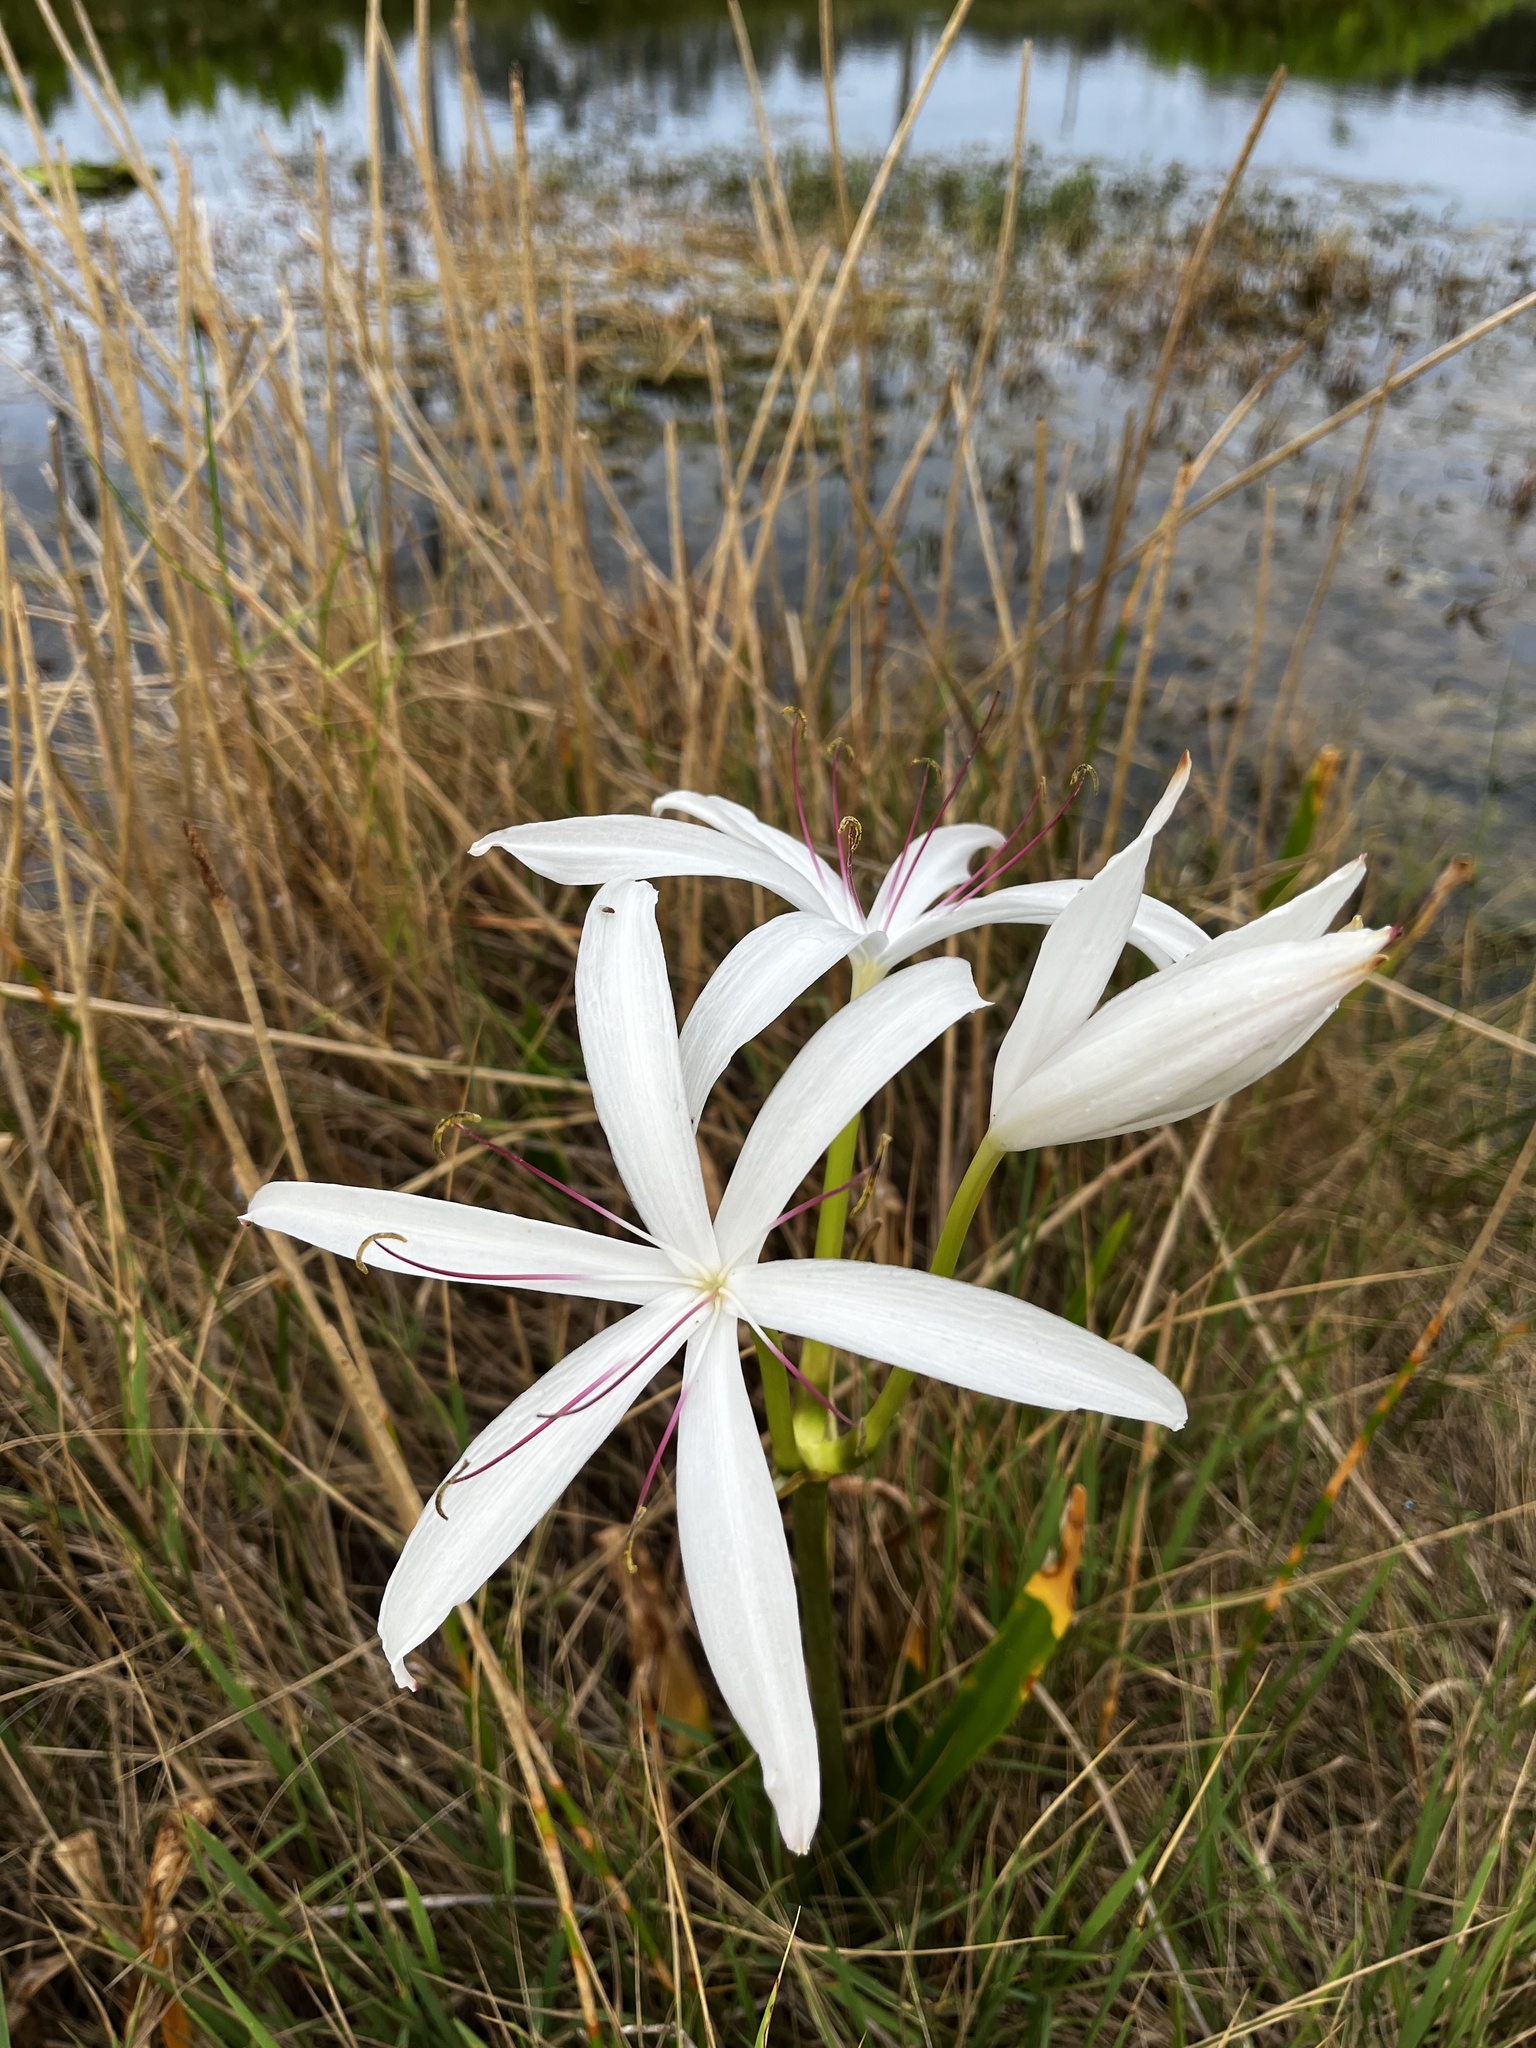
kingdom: Plantae
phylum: Tracheophyta
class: Liliopsida
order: Asparagales
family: Amaryllidaceae
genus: Crinum
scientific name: Crinum americanum
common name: Florida swamp-lily
